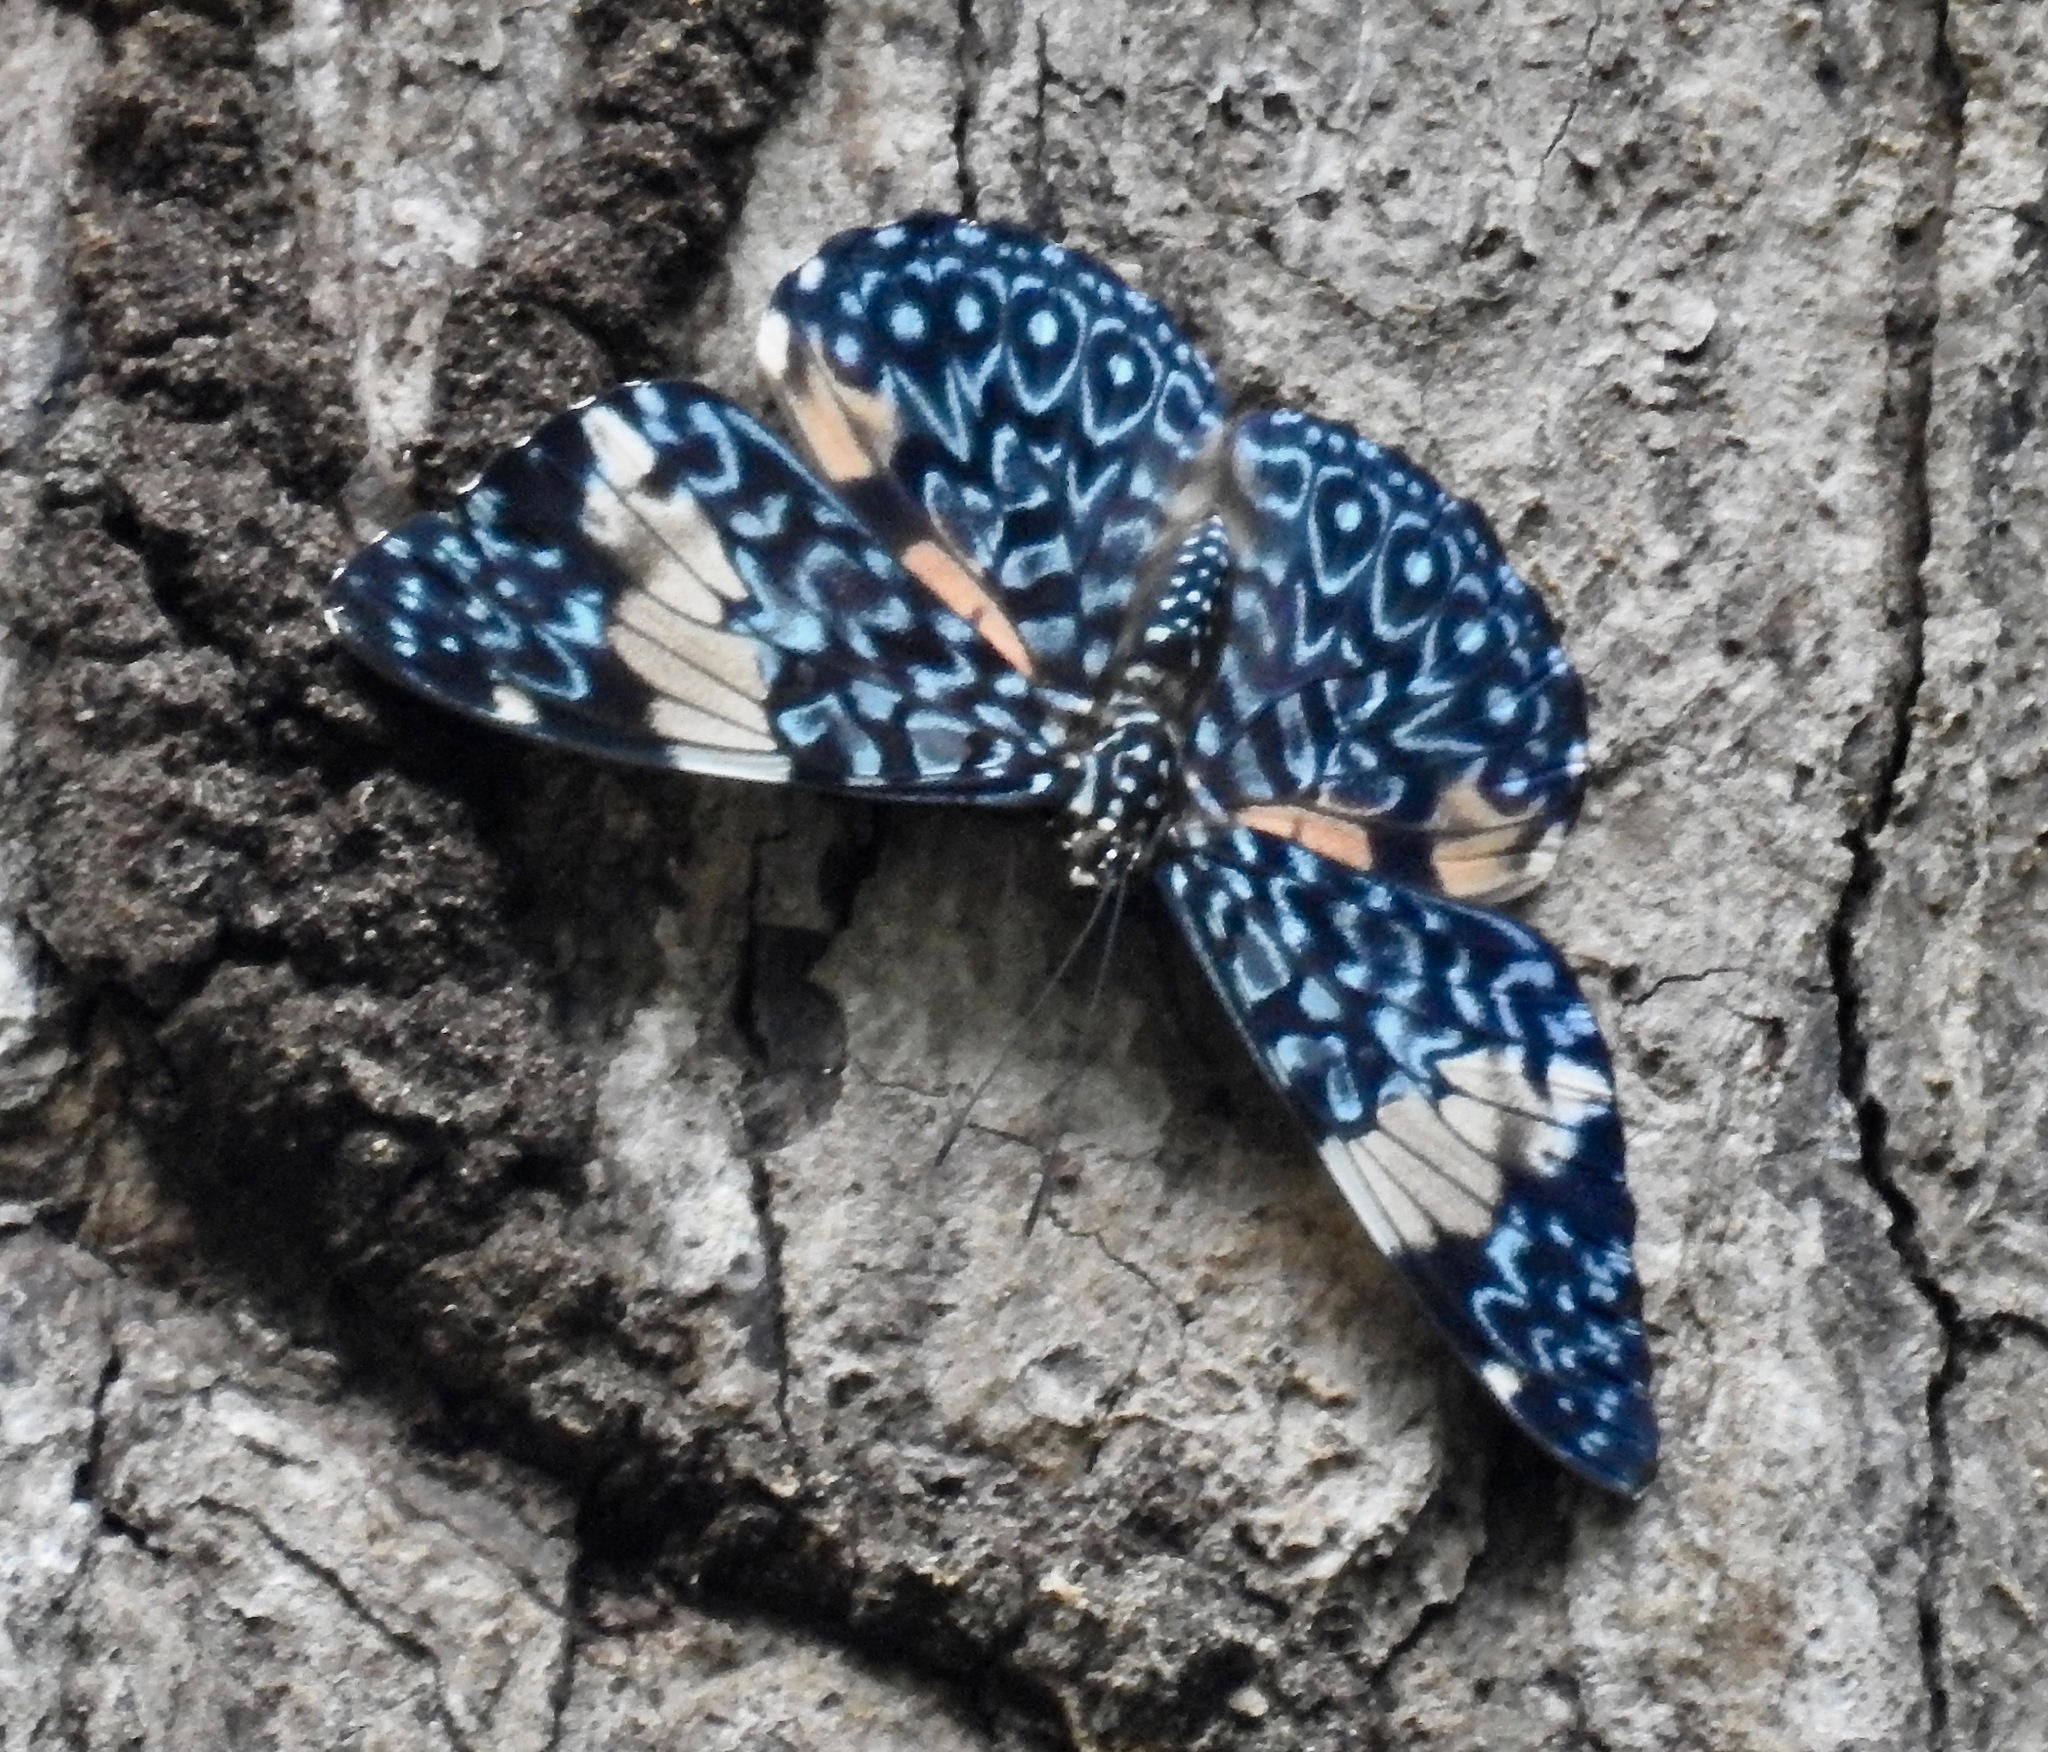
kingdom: Animalia
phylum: Arthropoda
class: Insecta
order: Lepidoptera
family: Nymphalidae
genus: Hamadryas
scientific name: Hamadryas amphinome
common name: Red cracker
